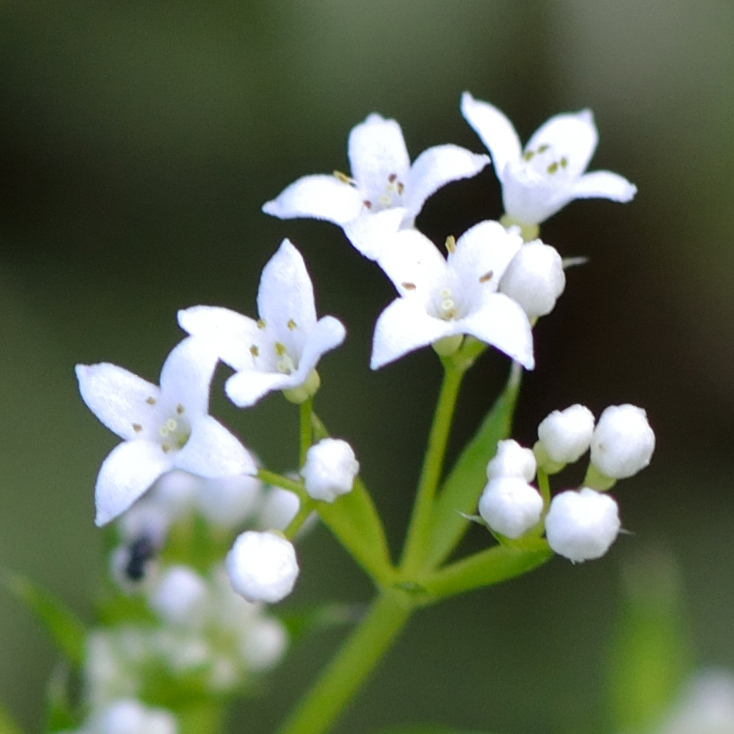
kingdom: Plantae
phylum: Tracheophyta
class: Magnoliopsida
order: Gentianales
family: Rubiaceae
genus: Galium
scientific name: Galium rivale
